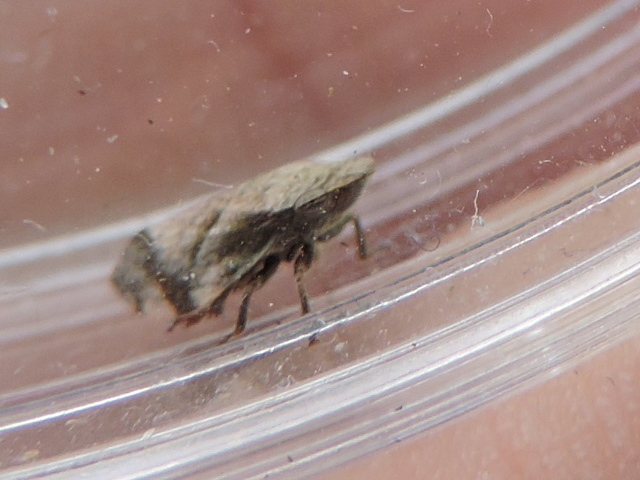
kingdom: Animalia
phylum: Arthropoda
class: Insecta
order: Hemiptera
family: Aphrophoridae
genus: Lepyronia
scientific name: Lepyronia quadrangularis
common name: Diamond-backed spittlebug
